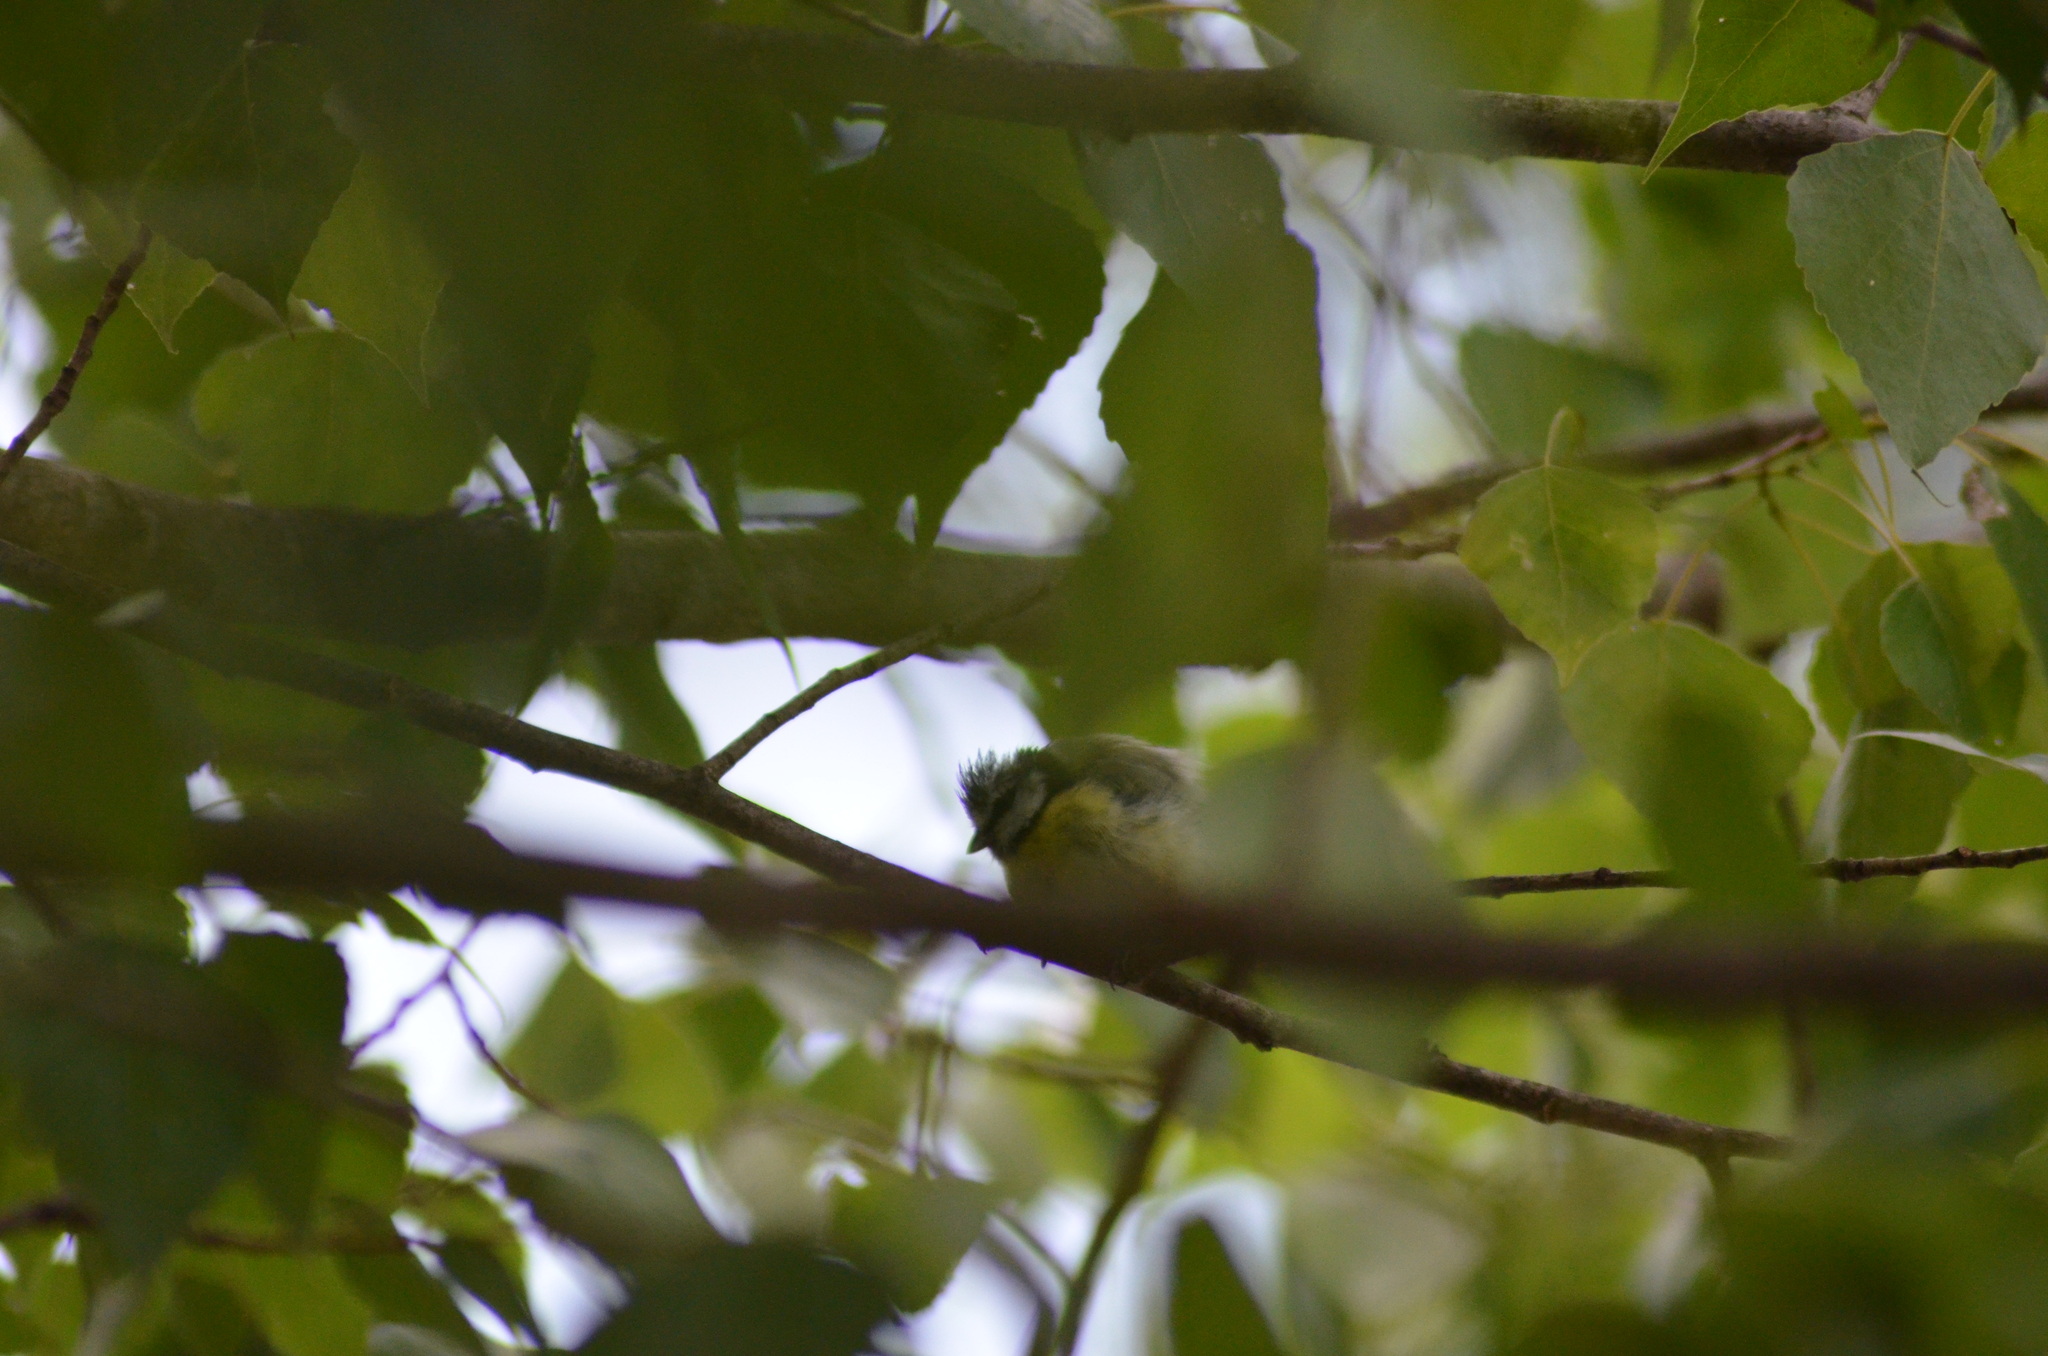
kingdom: Animalia
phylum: Chordata
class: Aves
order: Passeriformes
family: Paridae
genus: Cyanistes
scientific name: Cyanistes caeruleus
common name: Eurasian blue tit
